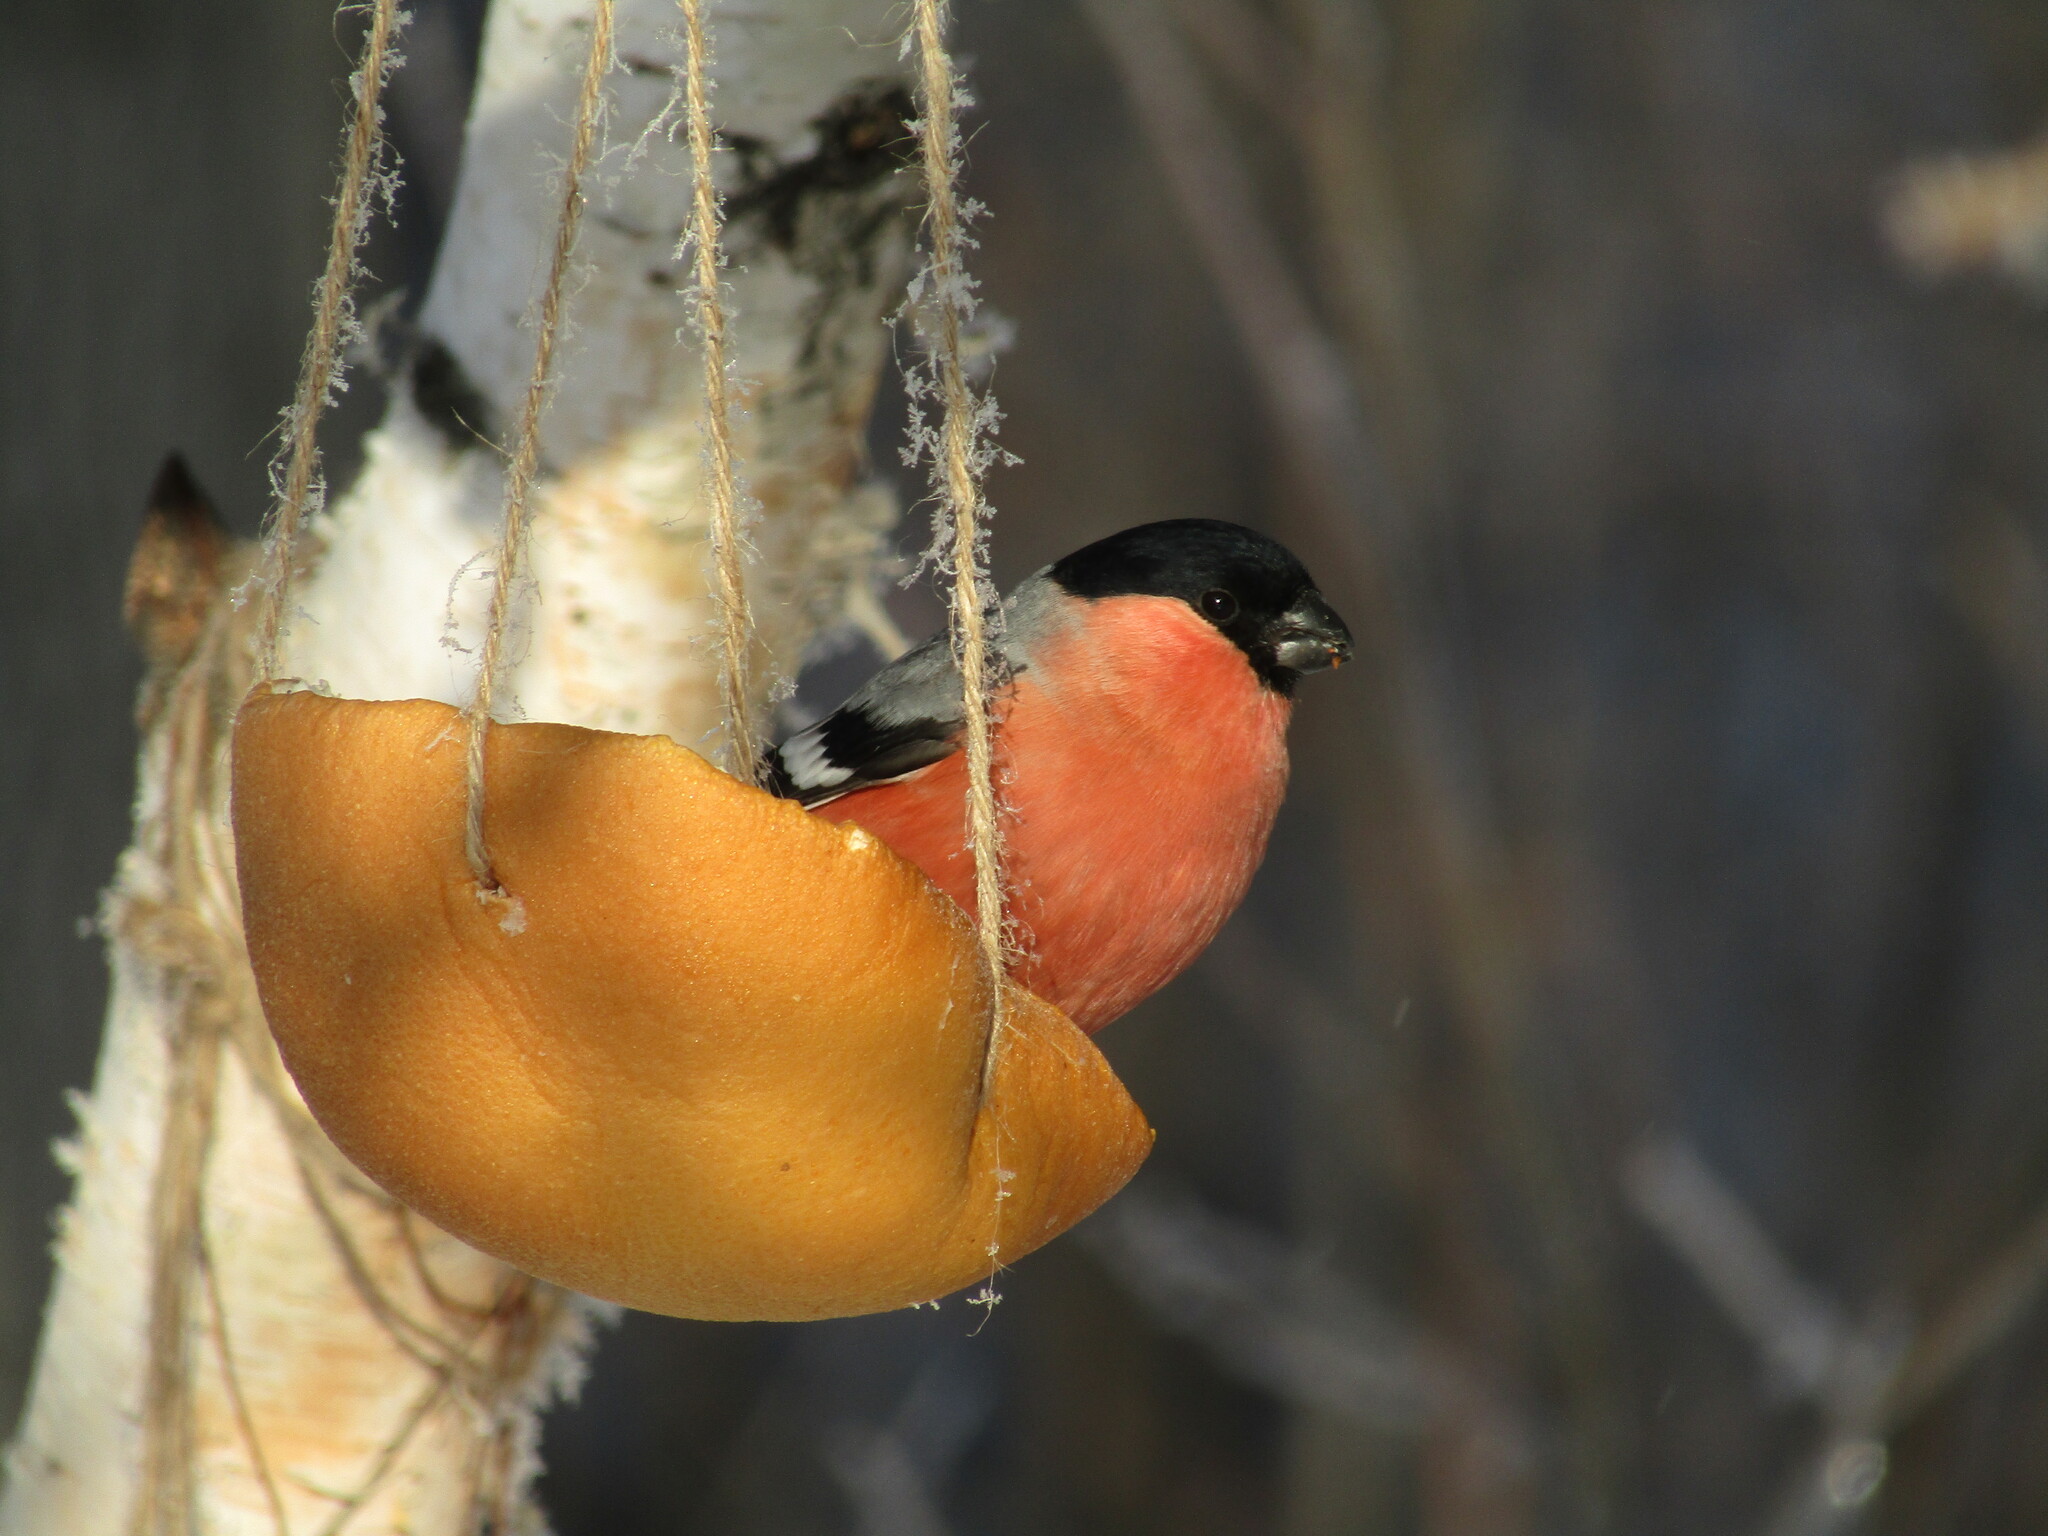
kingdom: Animalia
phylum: Chordata
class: Aves
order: Passeriformes
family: Fringillidae
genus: Pyrrhula
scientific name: Pyrrhula pyrrhula
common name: Eurasian bullfinch
